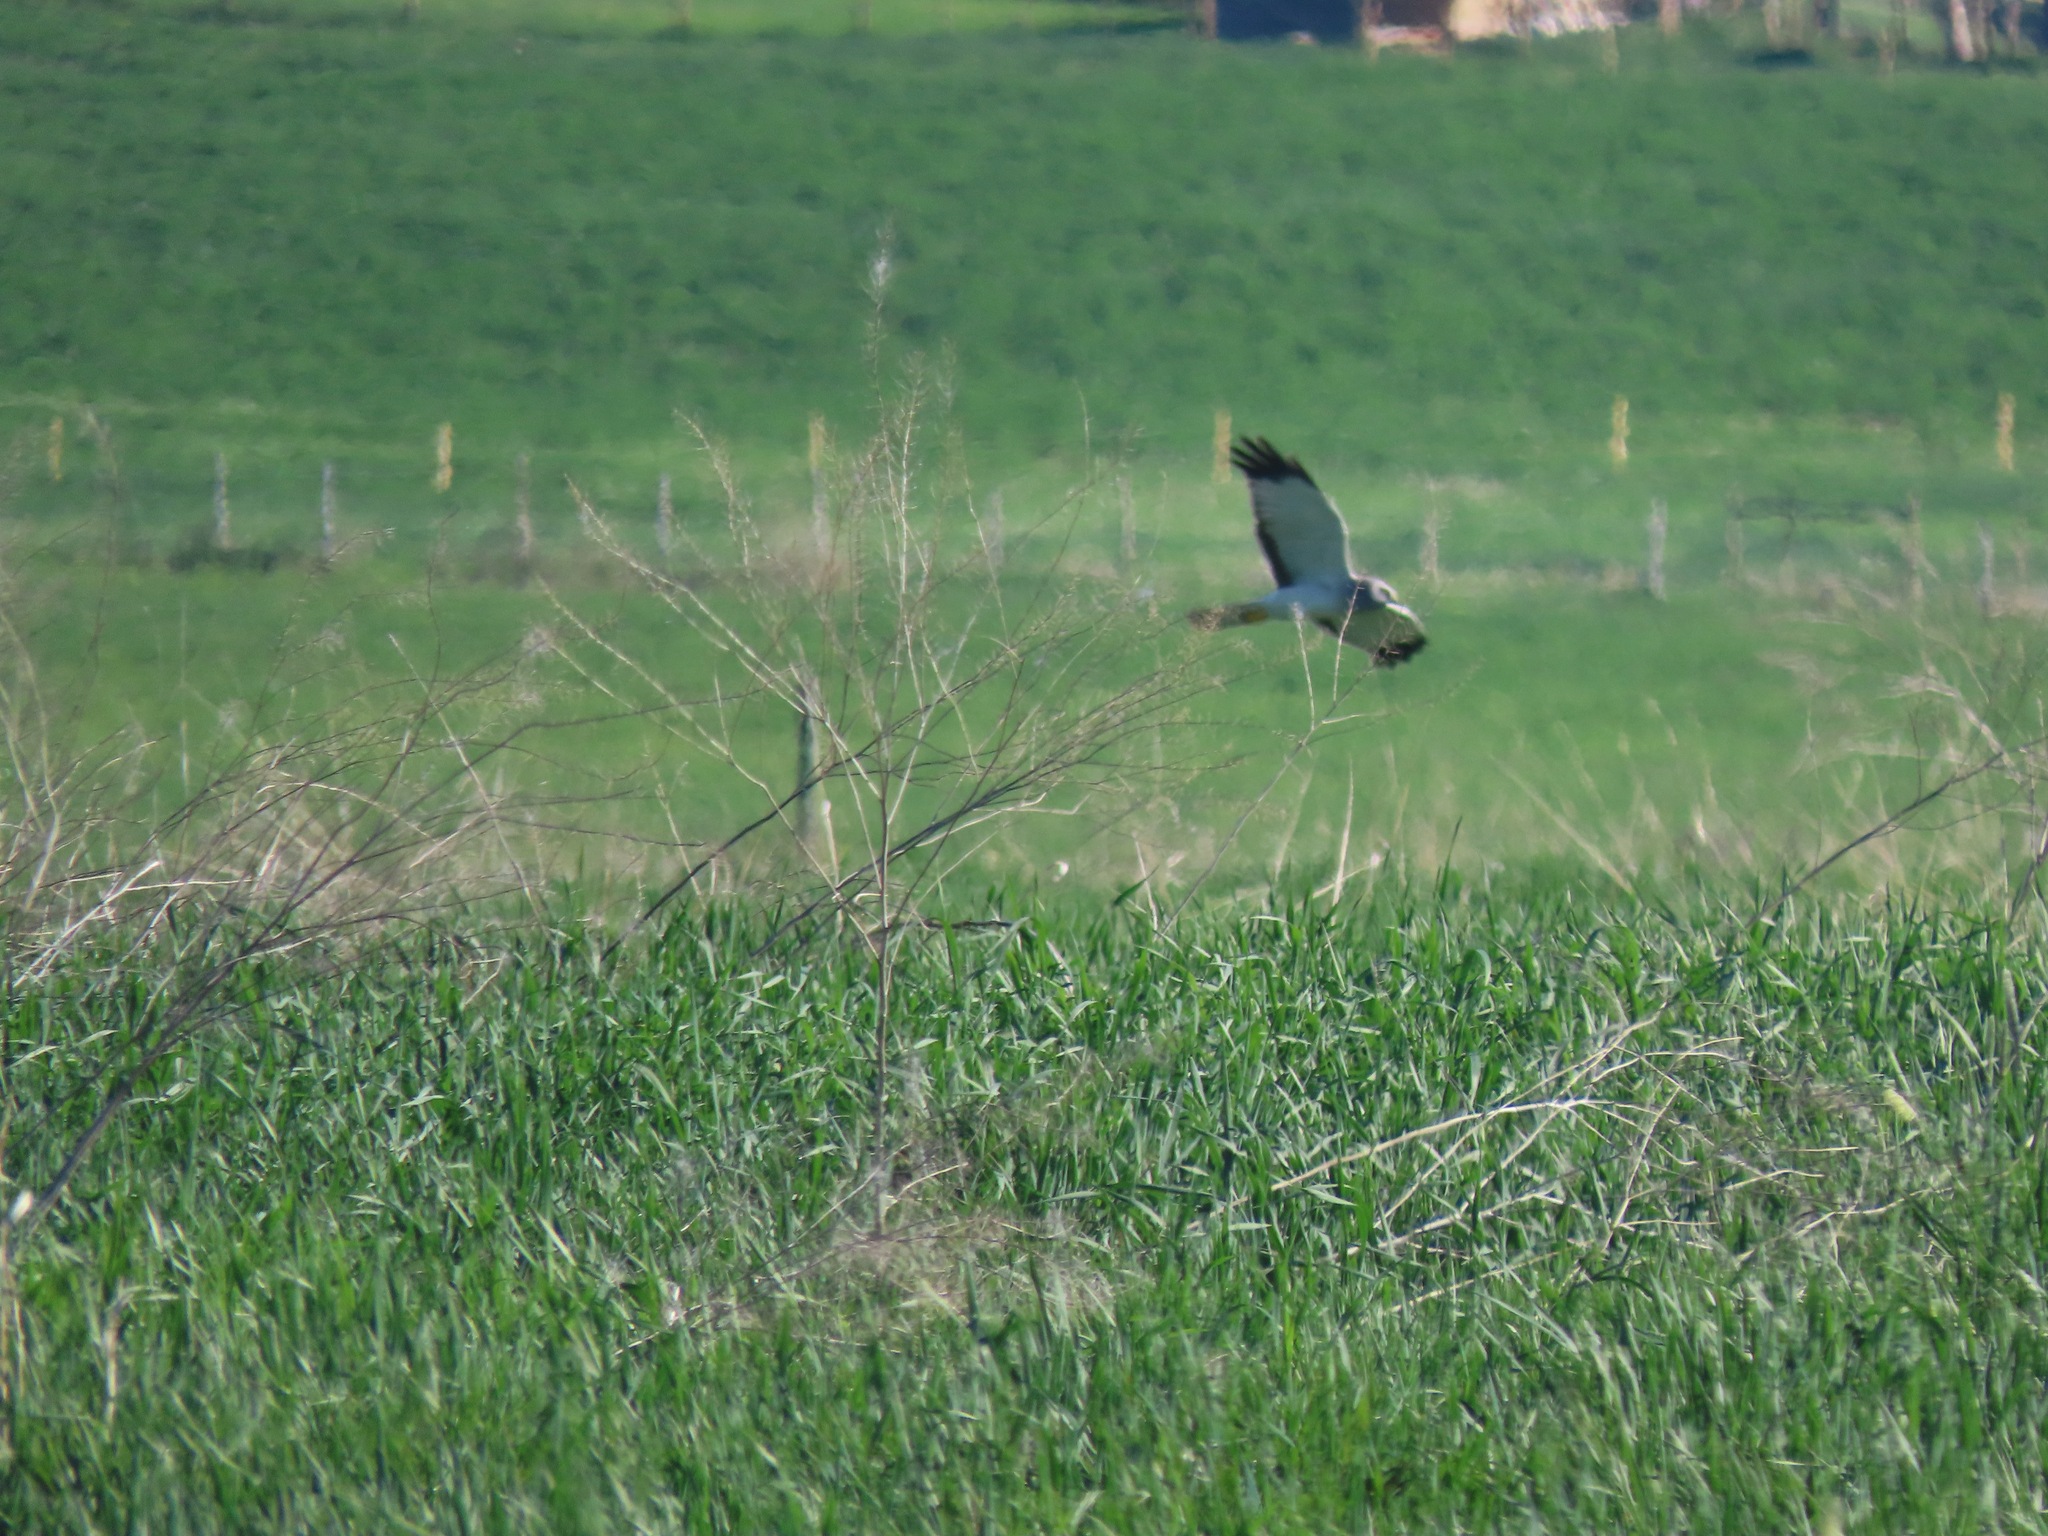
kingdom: Animalia
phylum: Chordata
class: Aves
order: Accipitriformes
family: Accipitridae
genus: Circus
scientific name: Circus cyaneus
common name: Hen harrier
